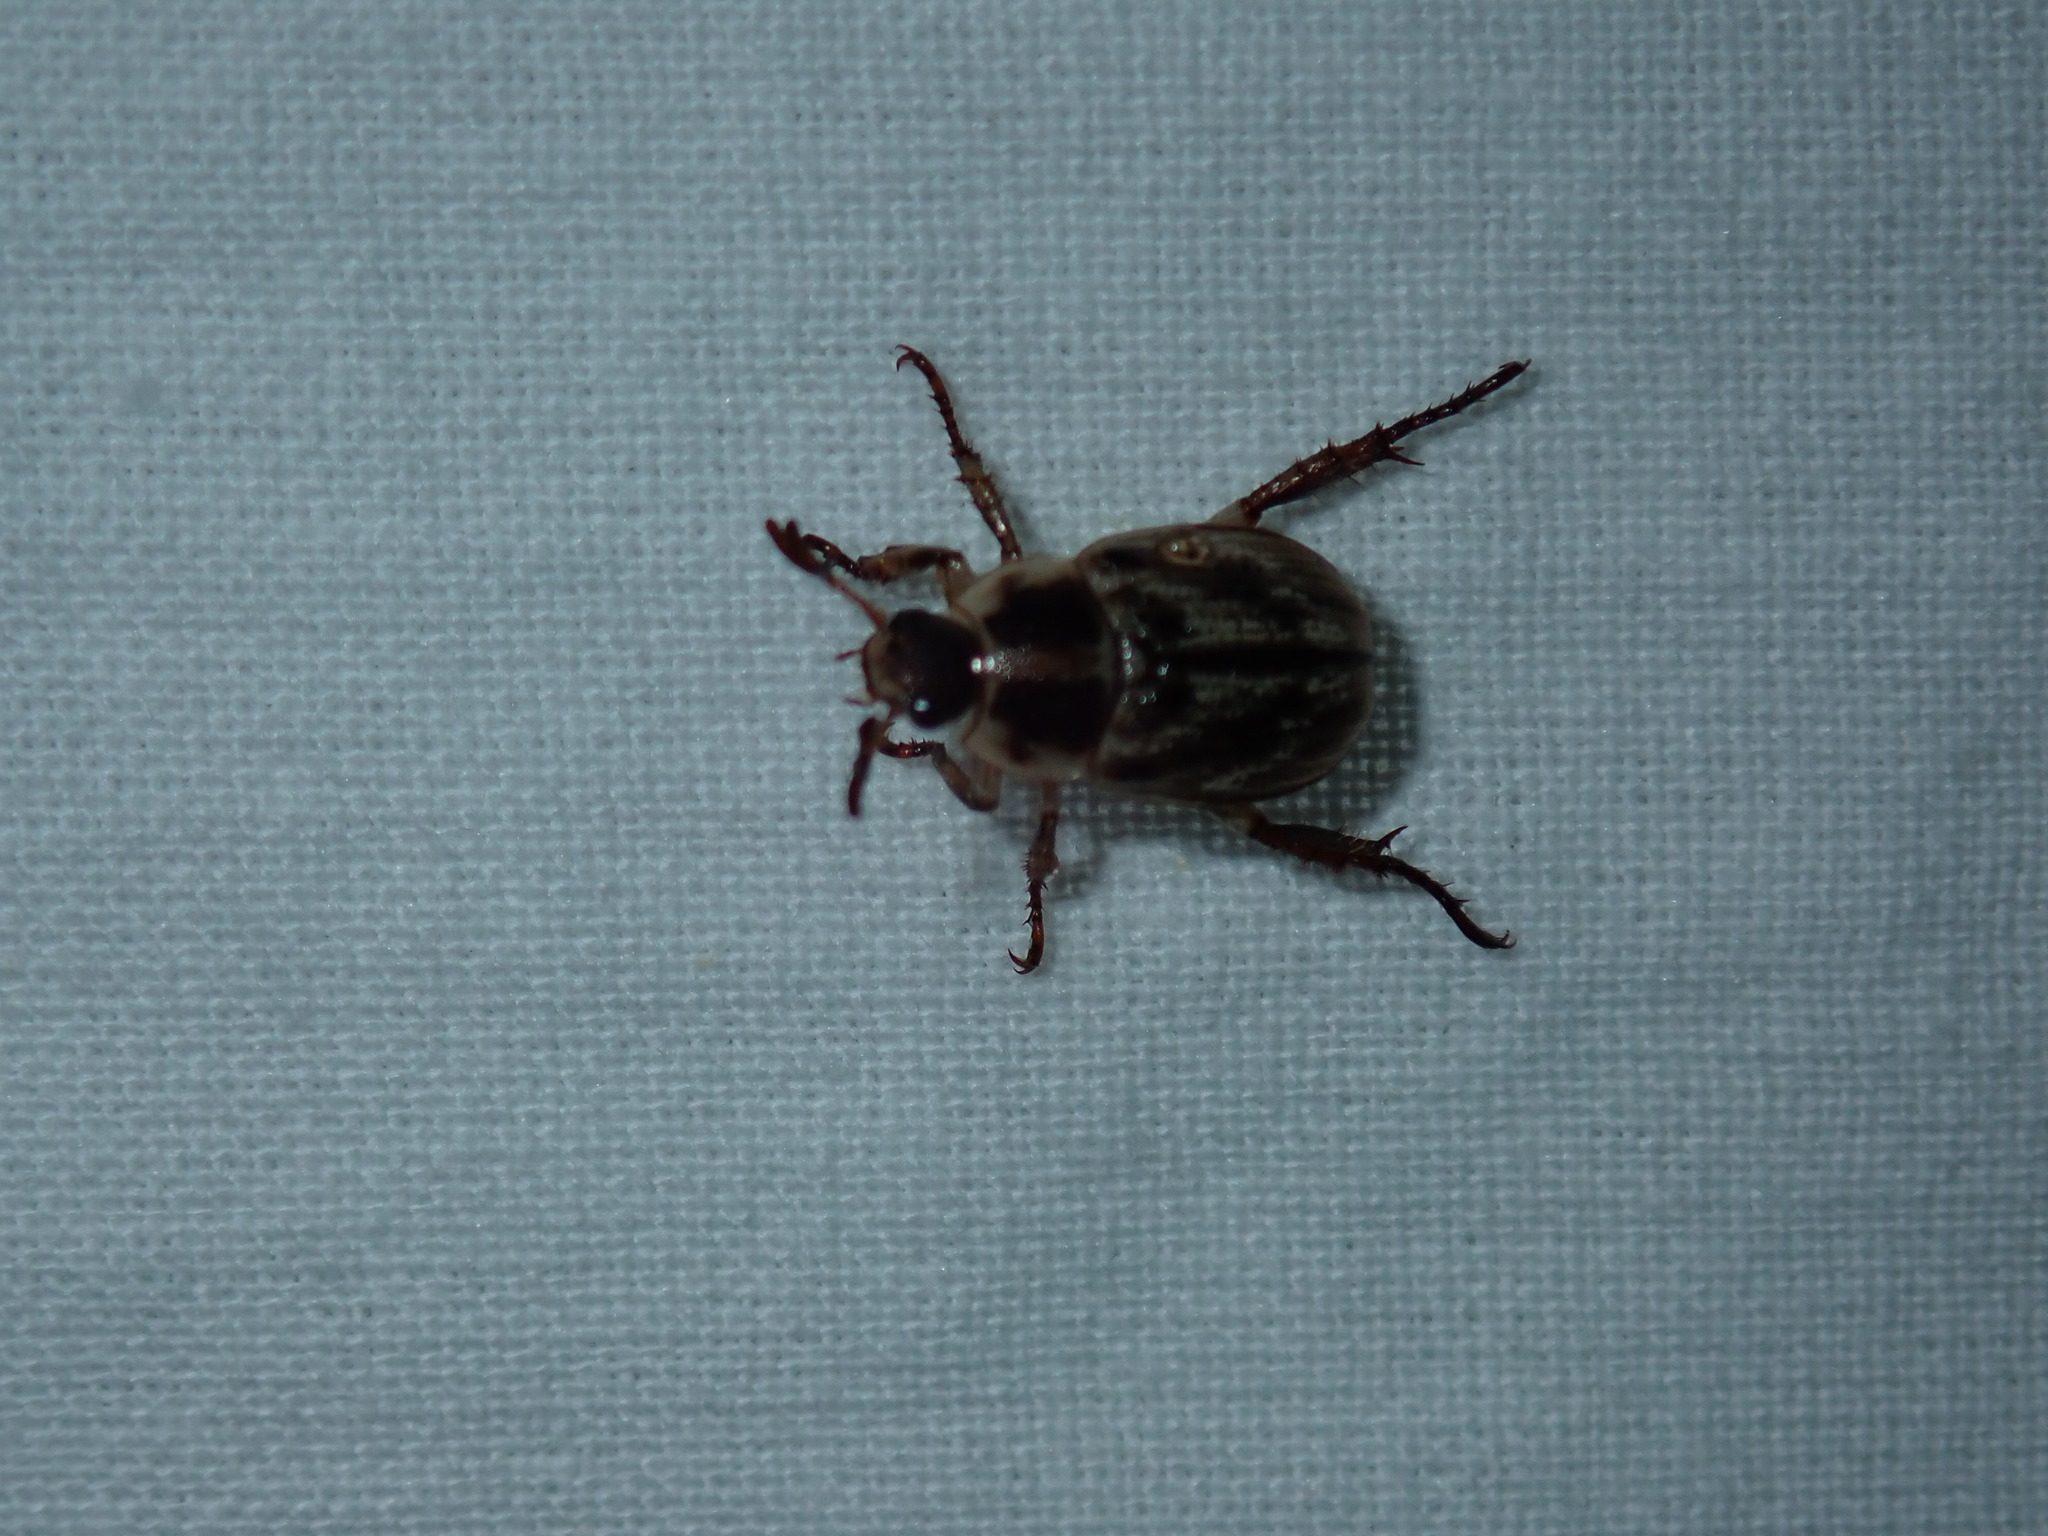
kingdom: Animalia
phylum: Arthropoda
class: Insecta
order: Coleoptera
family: Scarabaeidae
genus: Exomala
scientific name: Exomala orientalis
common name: Oriental beetle
